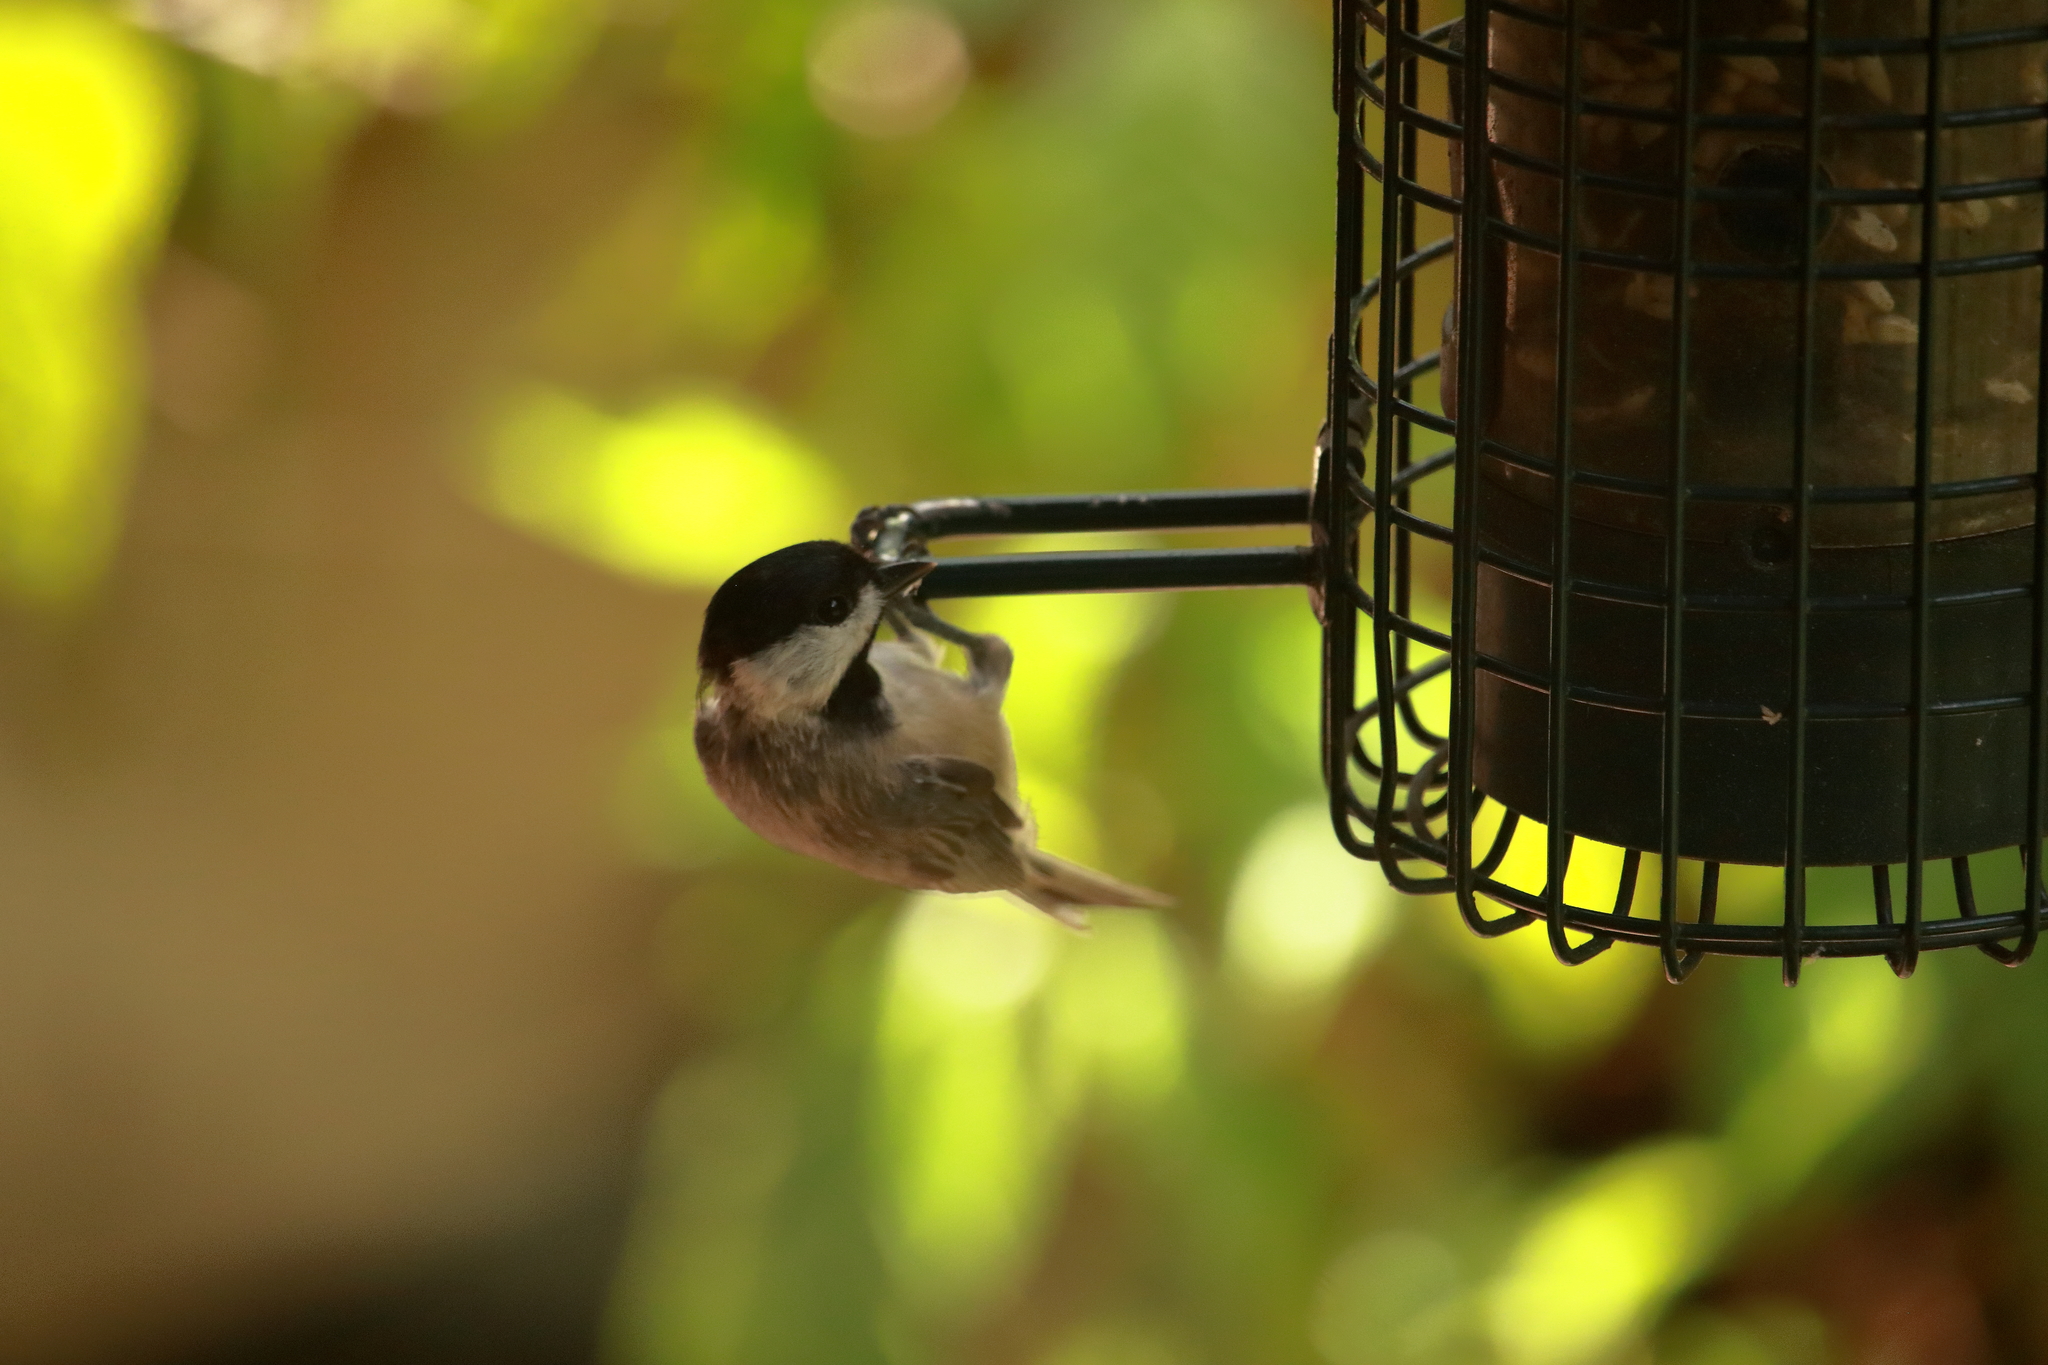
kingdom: Animalia
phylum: Chordata
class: Aves
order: Passeriformes
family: Paridae
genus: Poecile
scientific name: Poecile carolinensis
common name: Carolina chickadee
